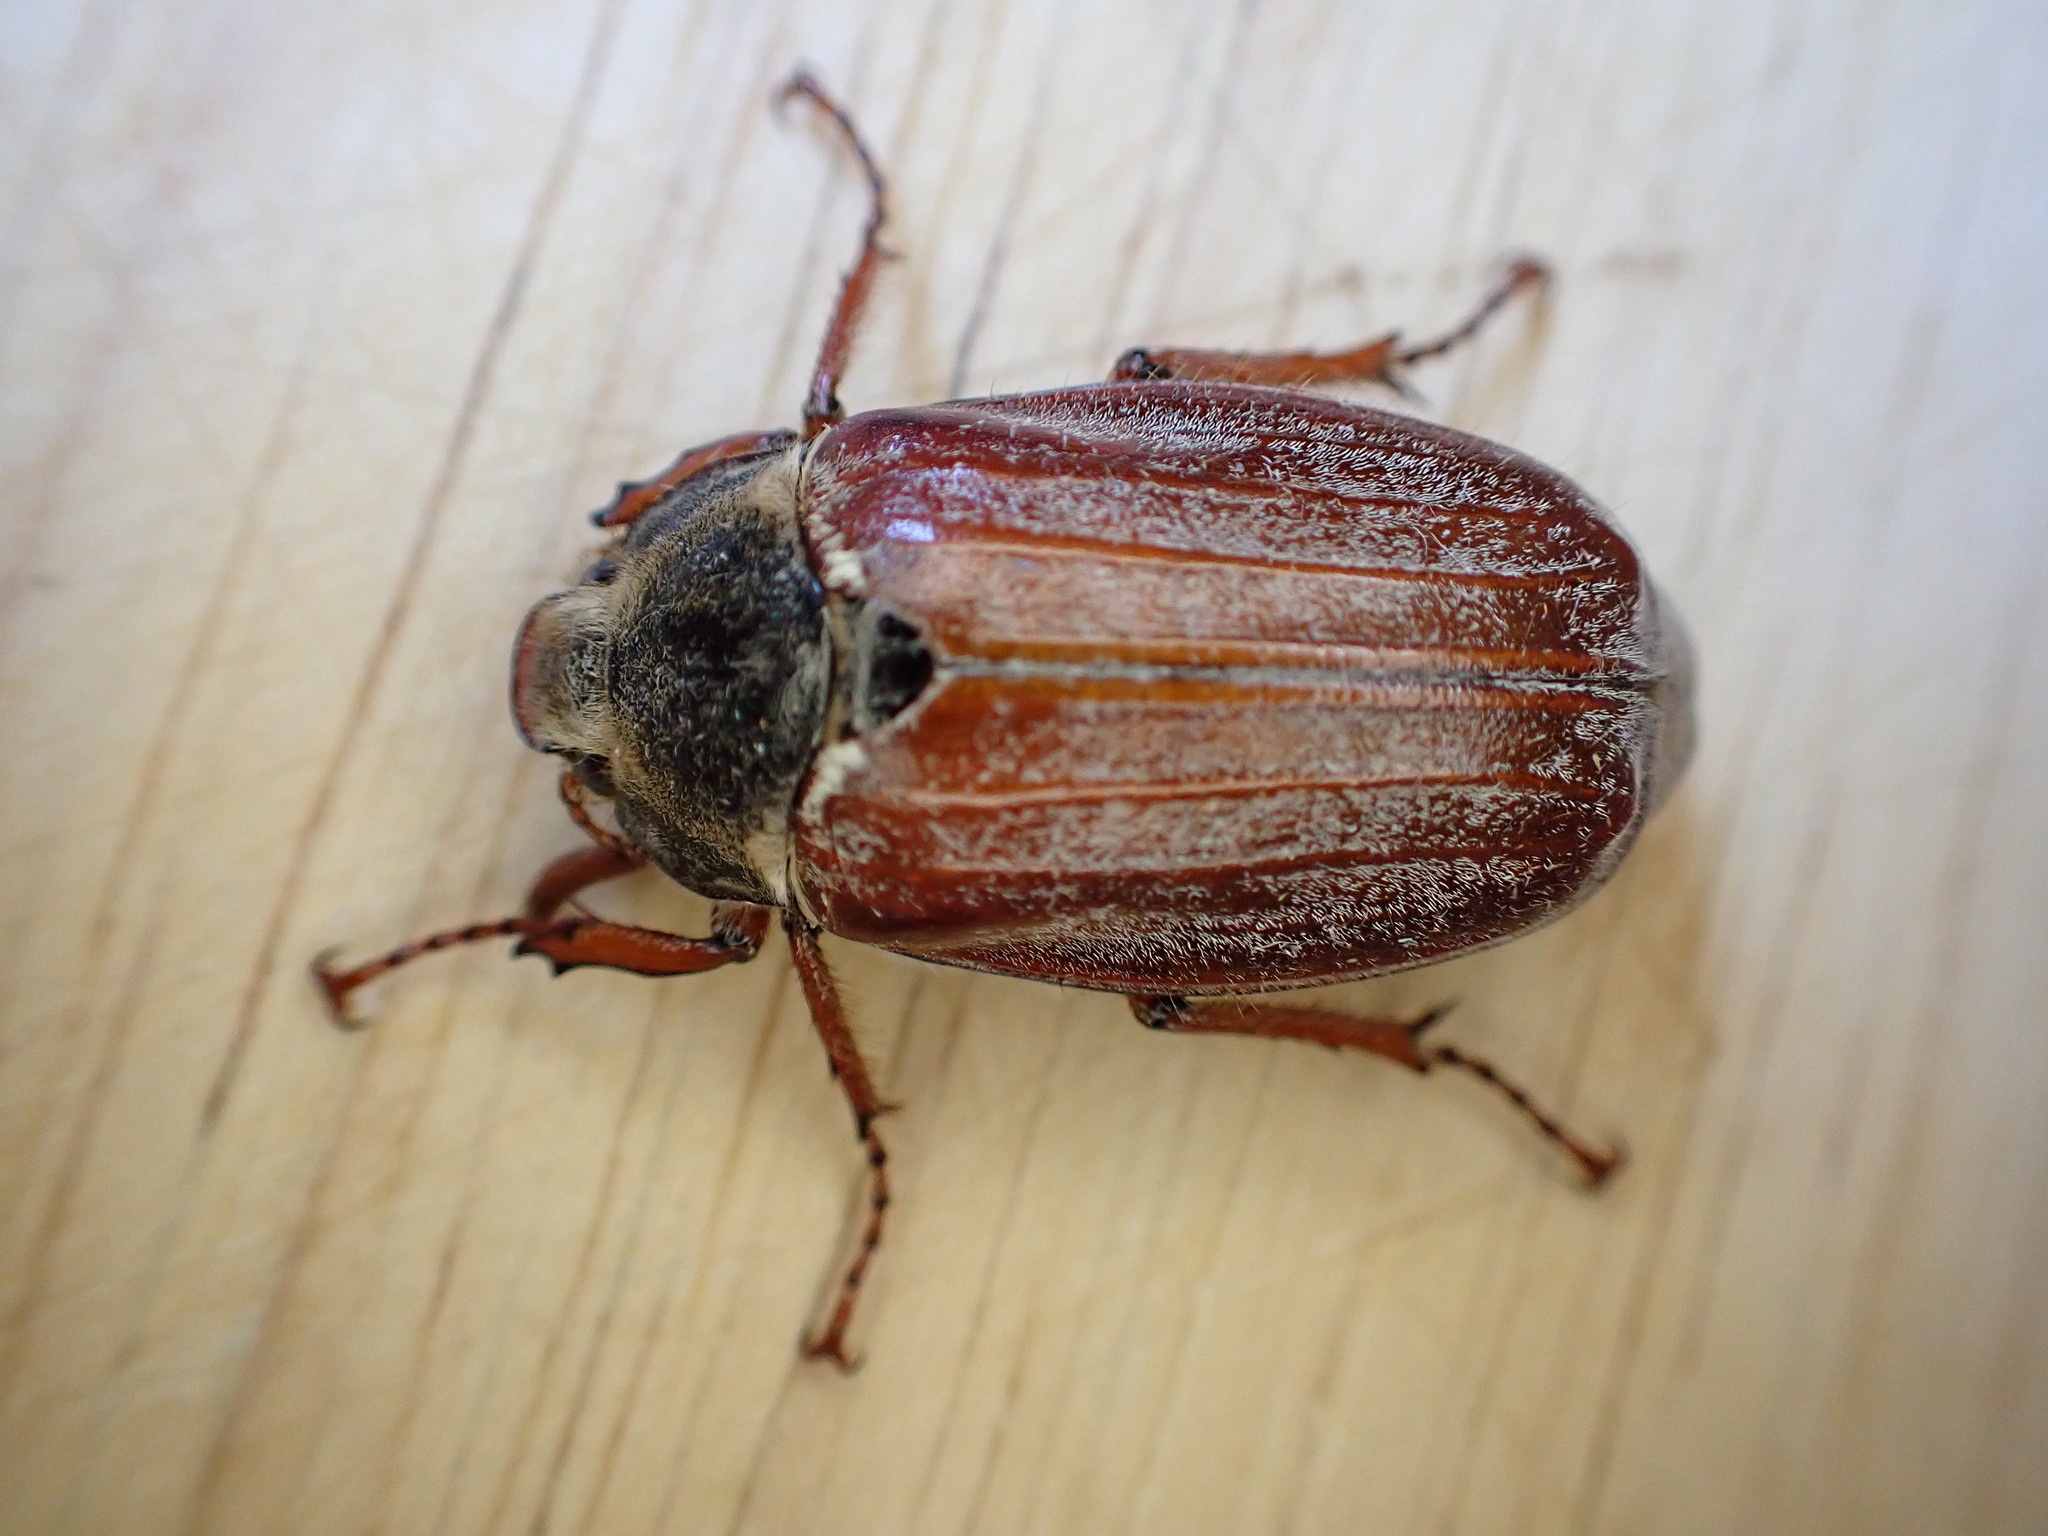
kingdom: Animalia
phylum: Arthropoda
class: Insecta
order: Coleoptera
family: Scarabaeidae
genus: Melolontha
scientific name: Melolontha melolontha
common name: Cockchafer maybeetle
